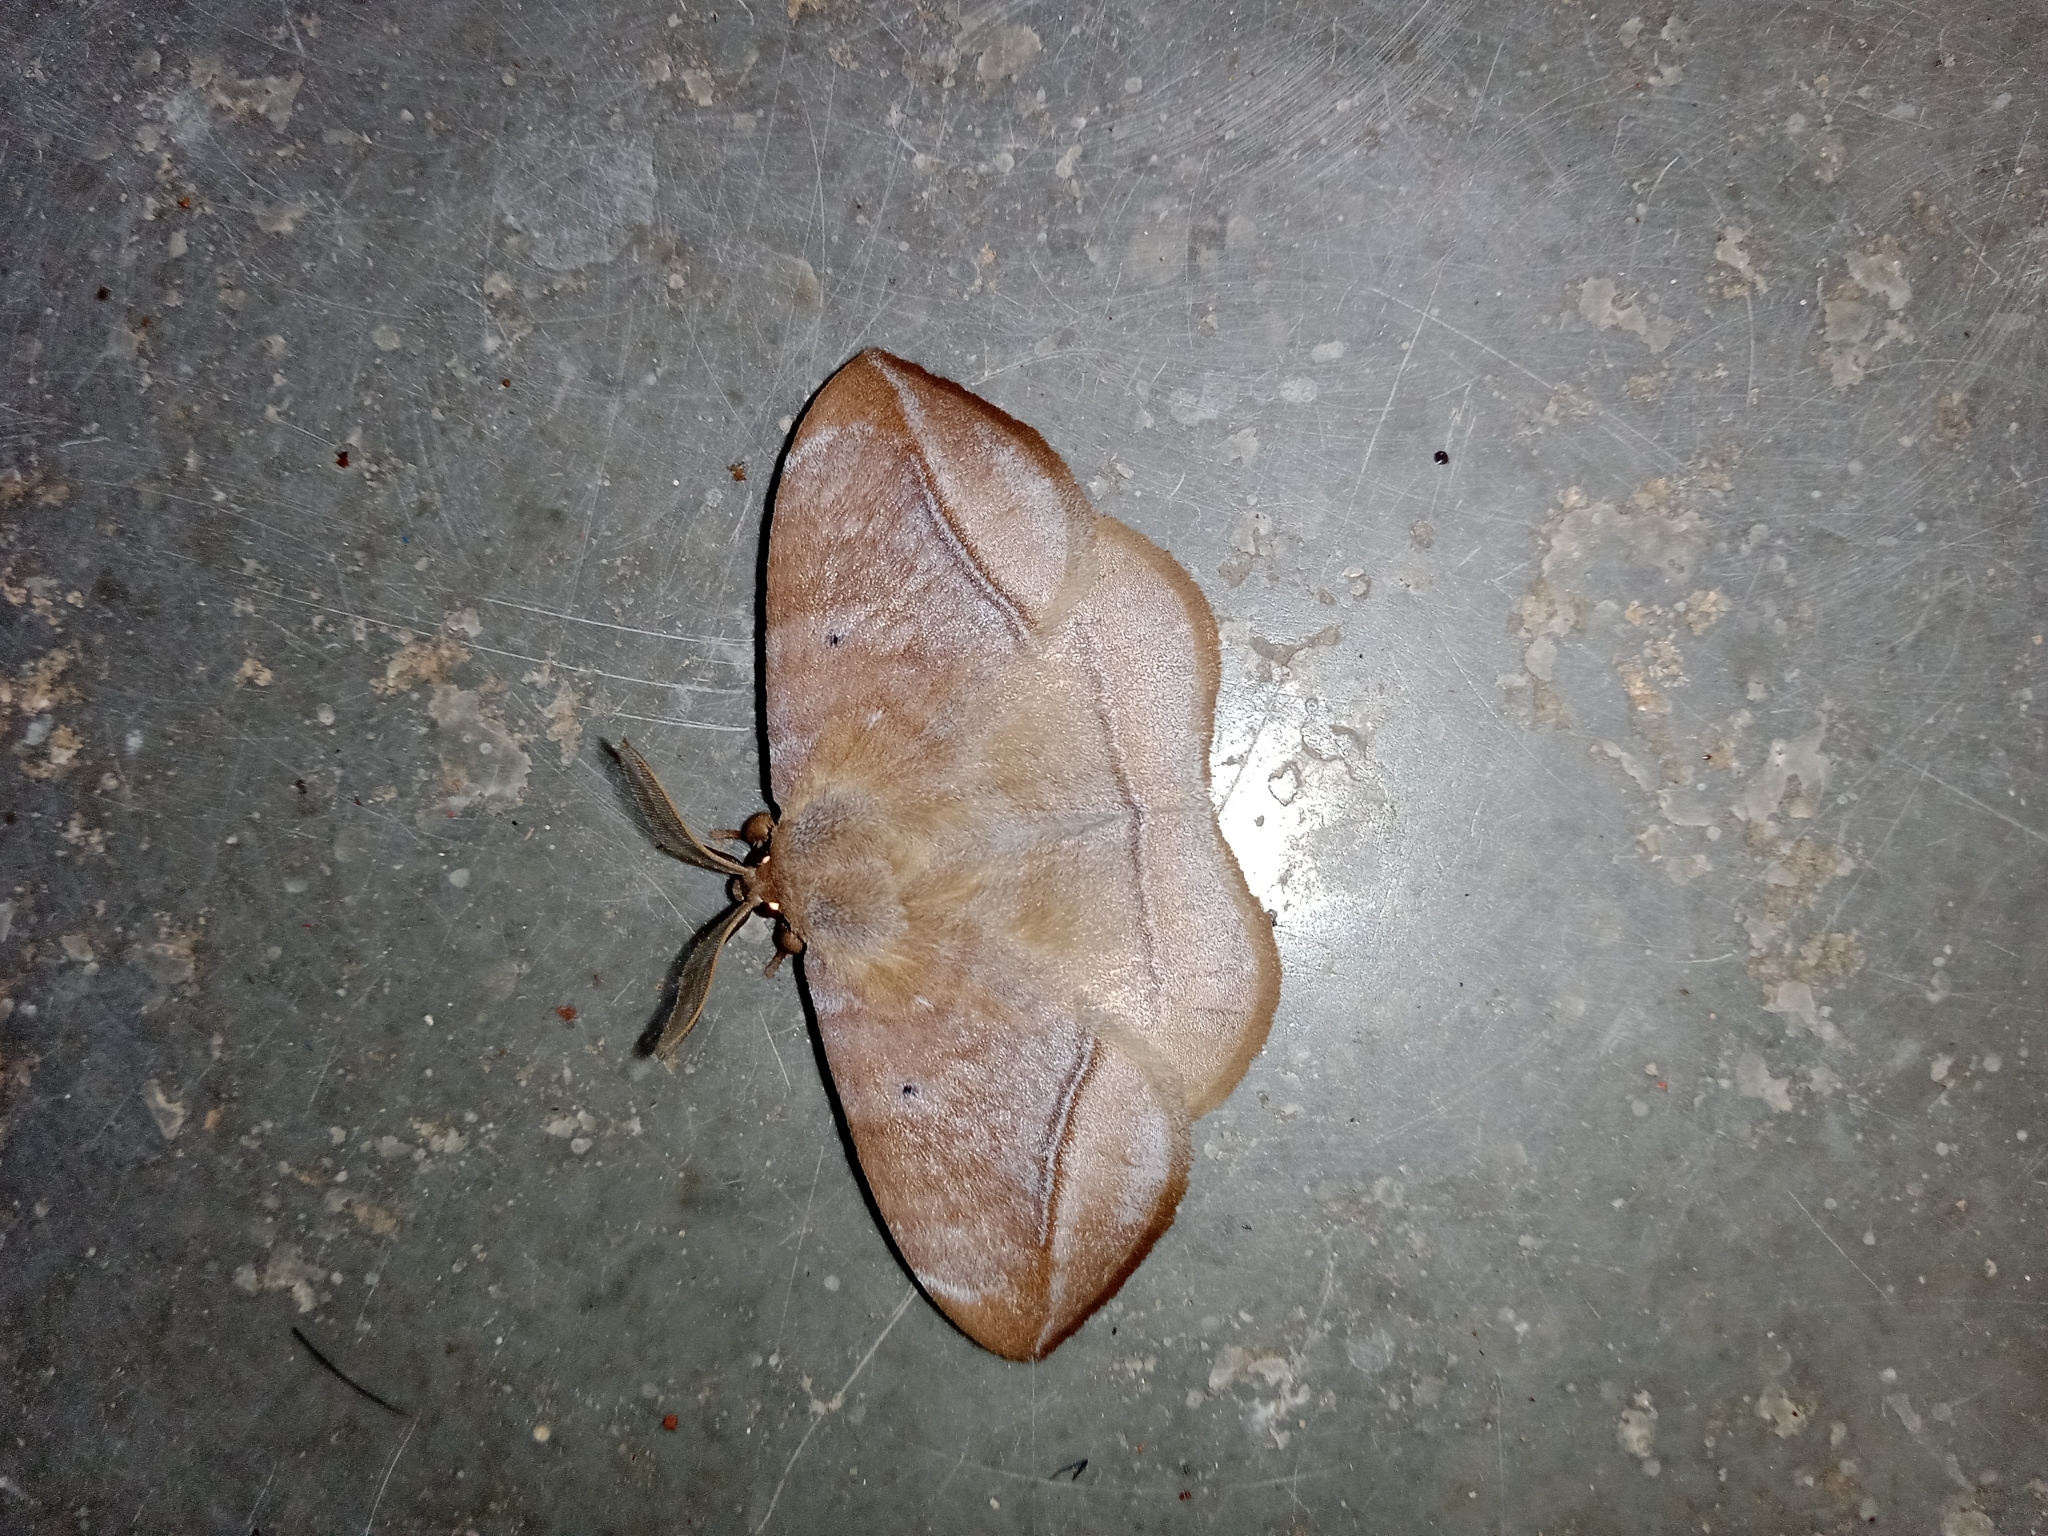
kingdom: Animalia
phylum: Arthropoda
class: Insecta
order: Lepidoptera
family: Eupterotidae
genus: Ganisa
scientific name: Ganisa postica
